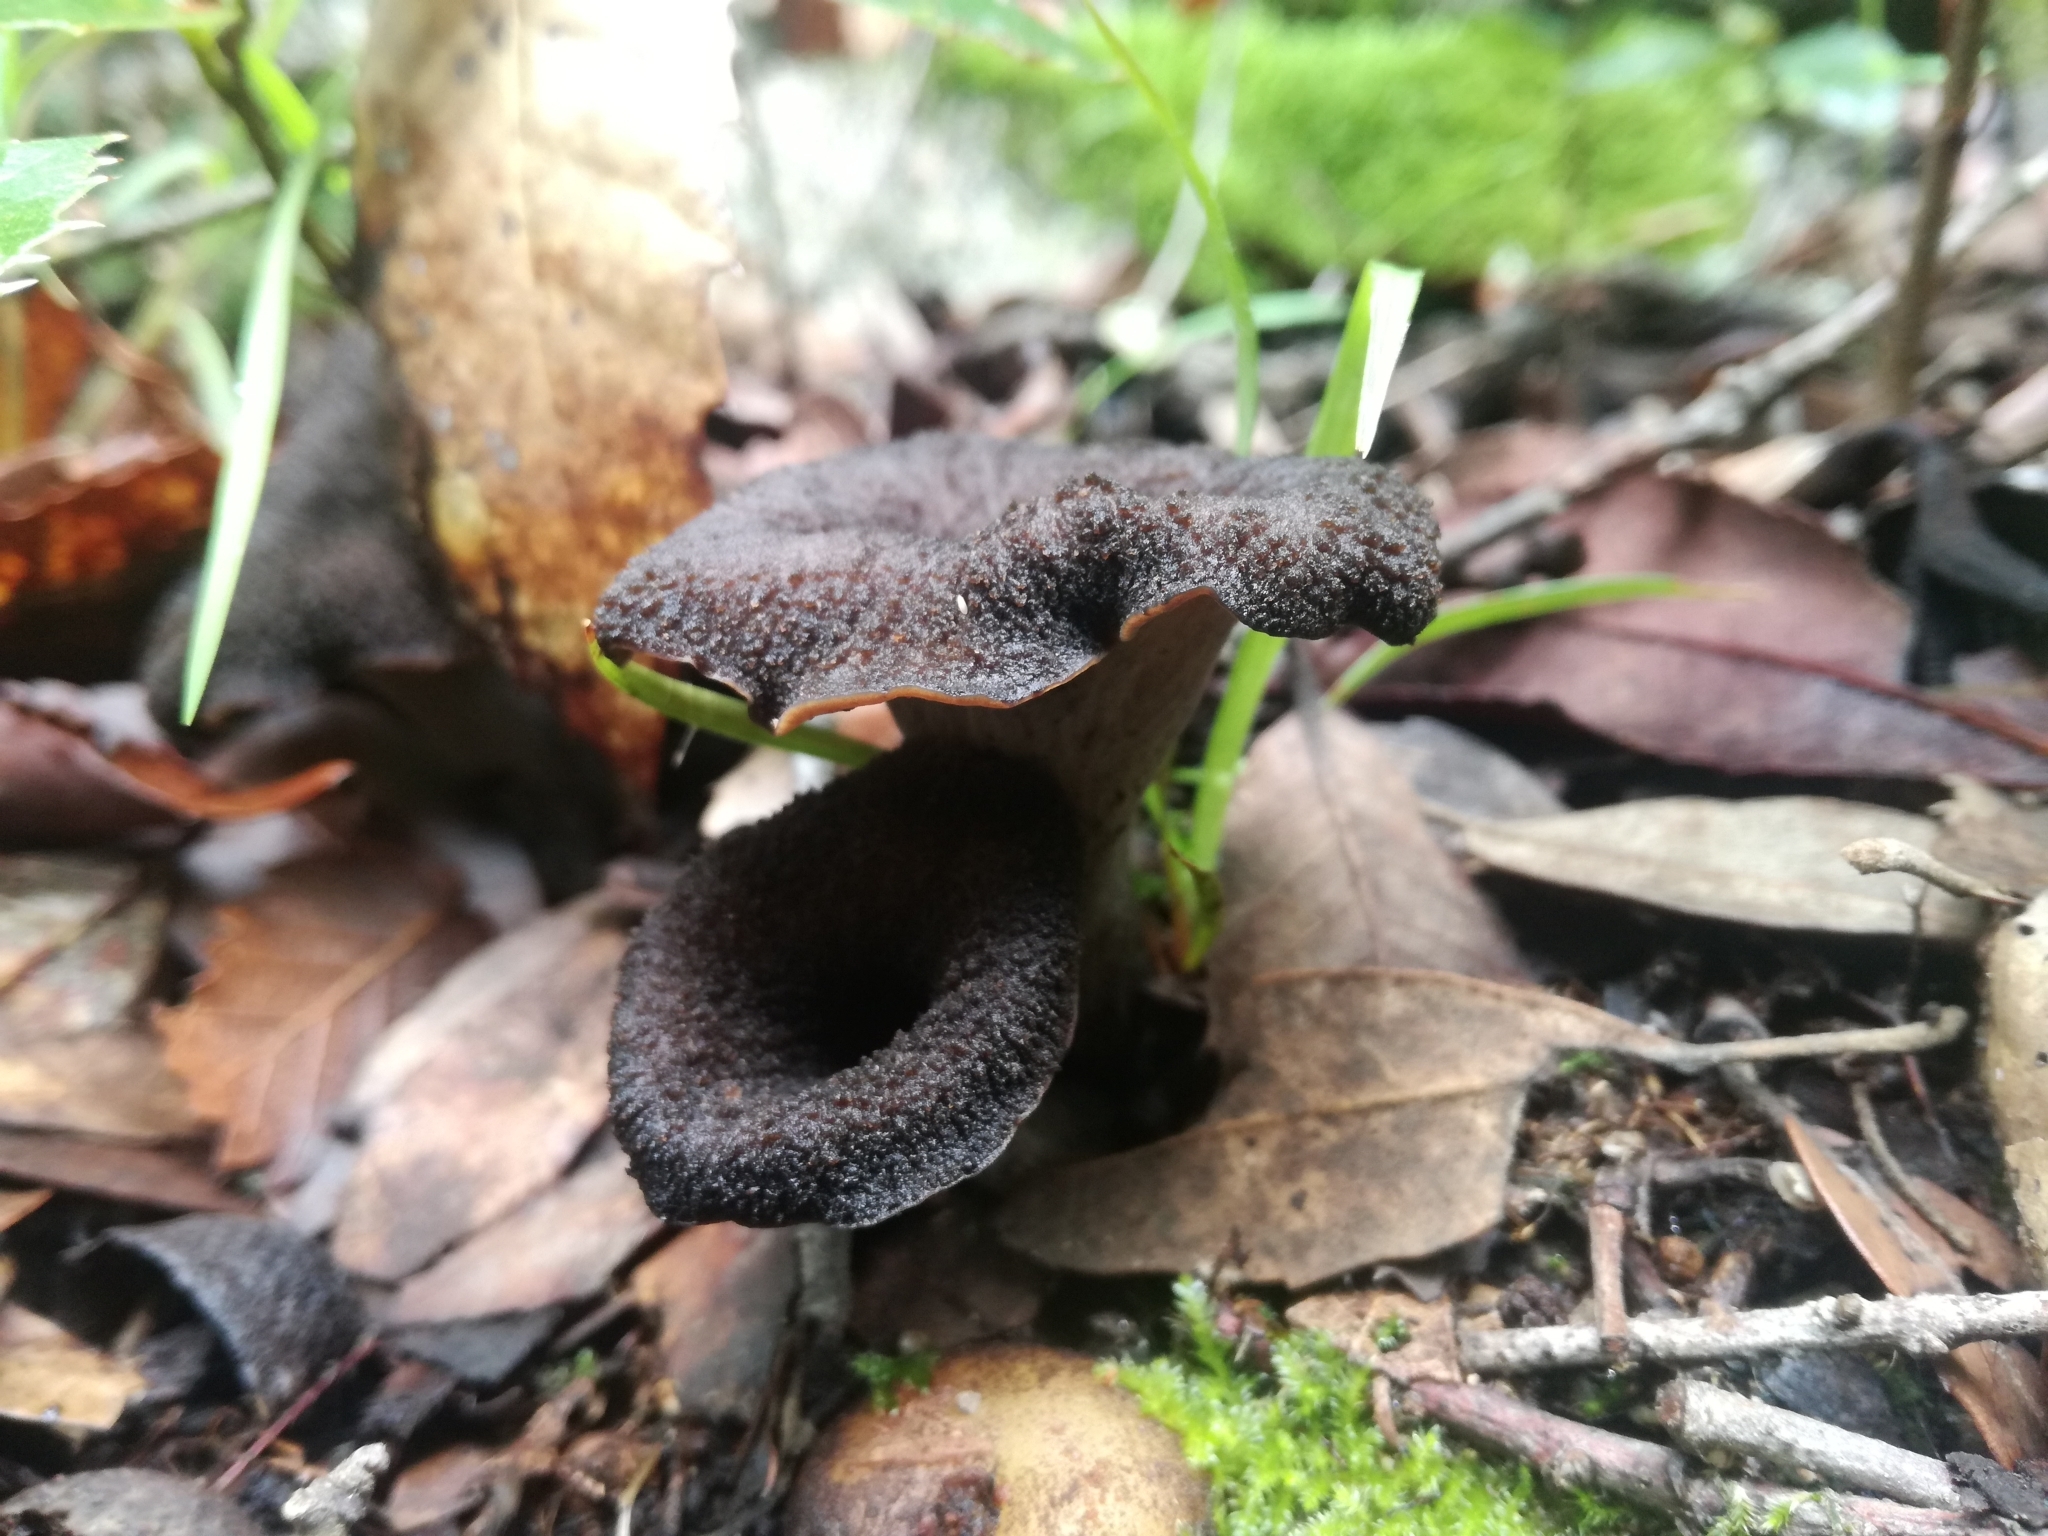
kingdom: Fungi
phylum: Basidiomycota
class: Agaricomycetes
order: Cantharellales
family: Hydnaceae
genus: Craterellus
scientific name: Craterellus cornucopioides
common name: Horn of plenty
